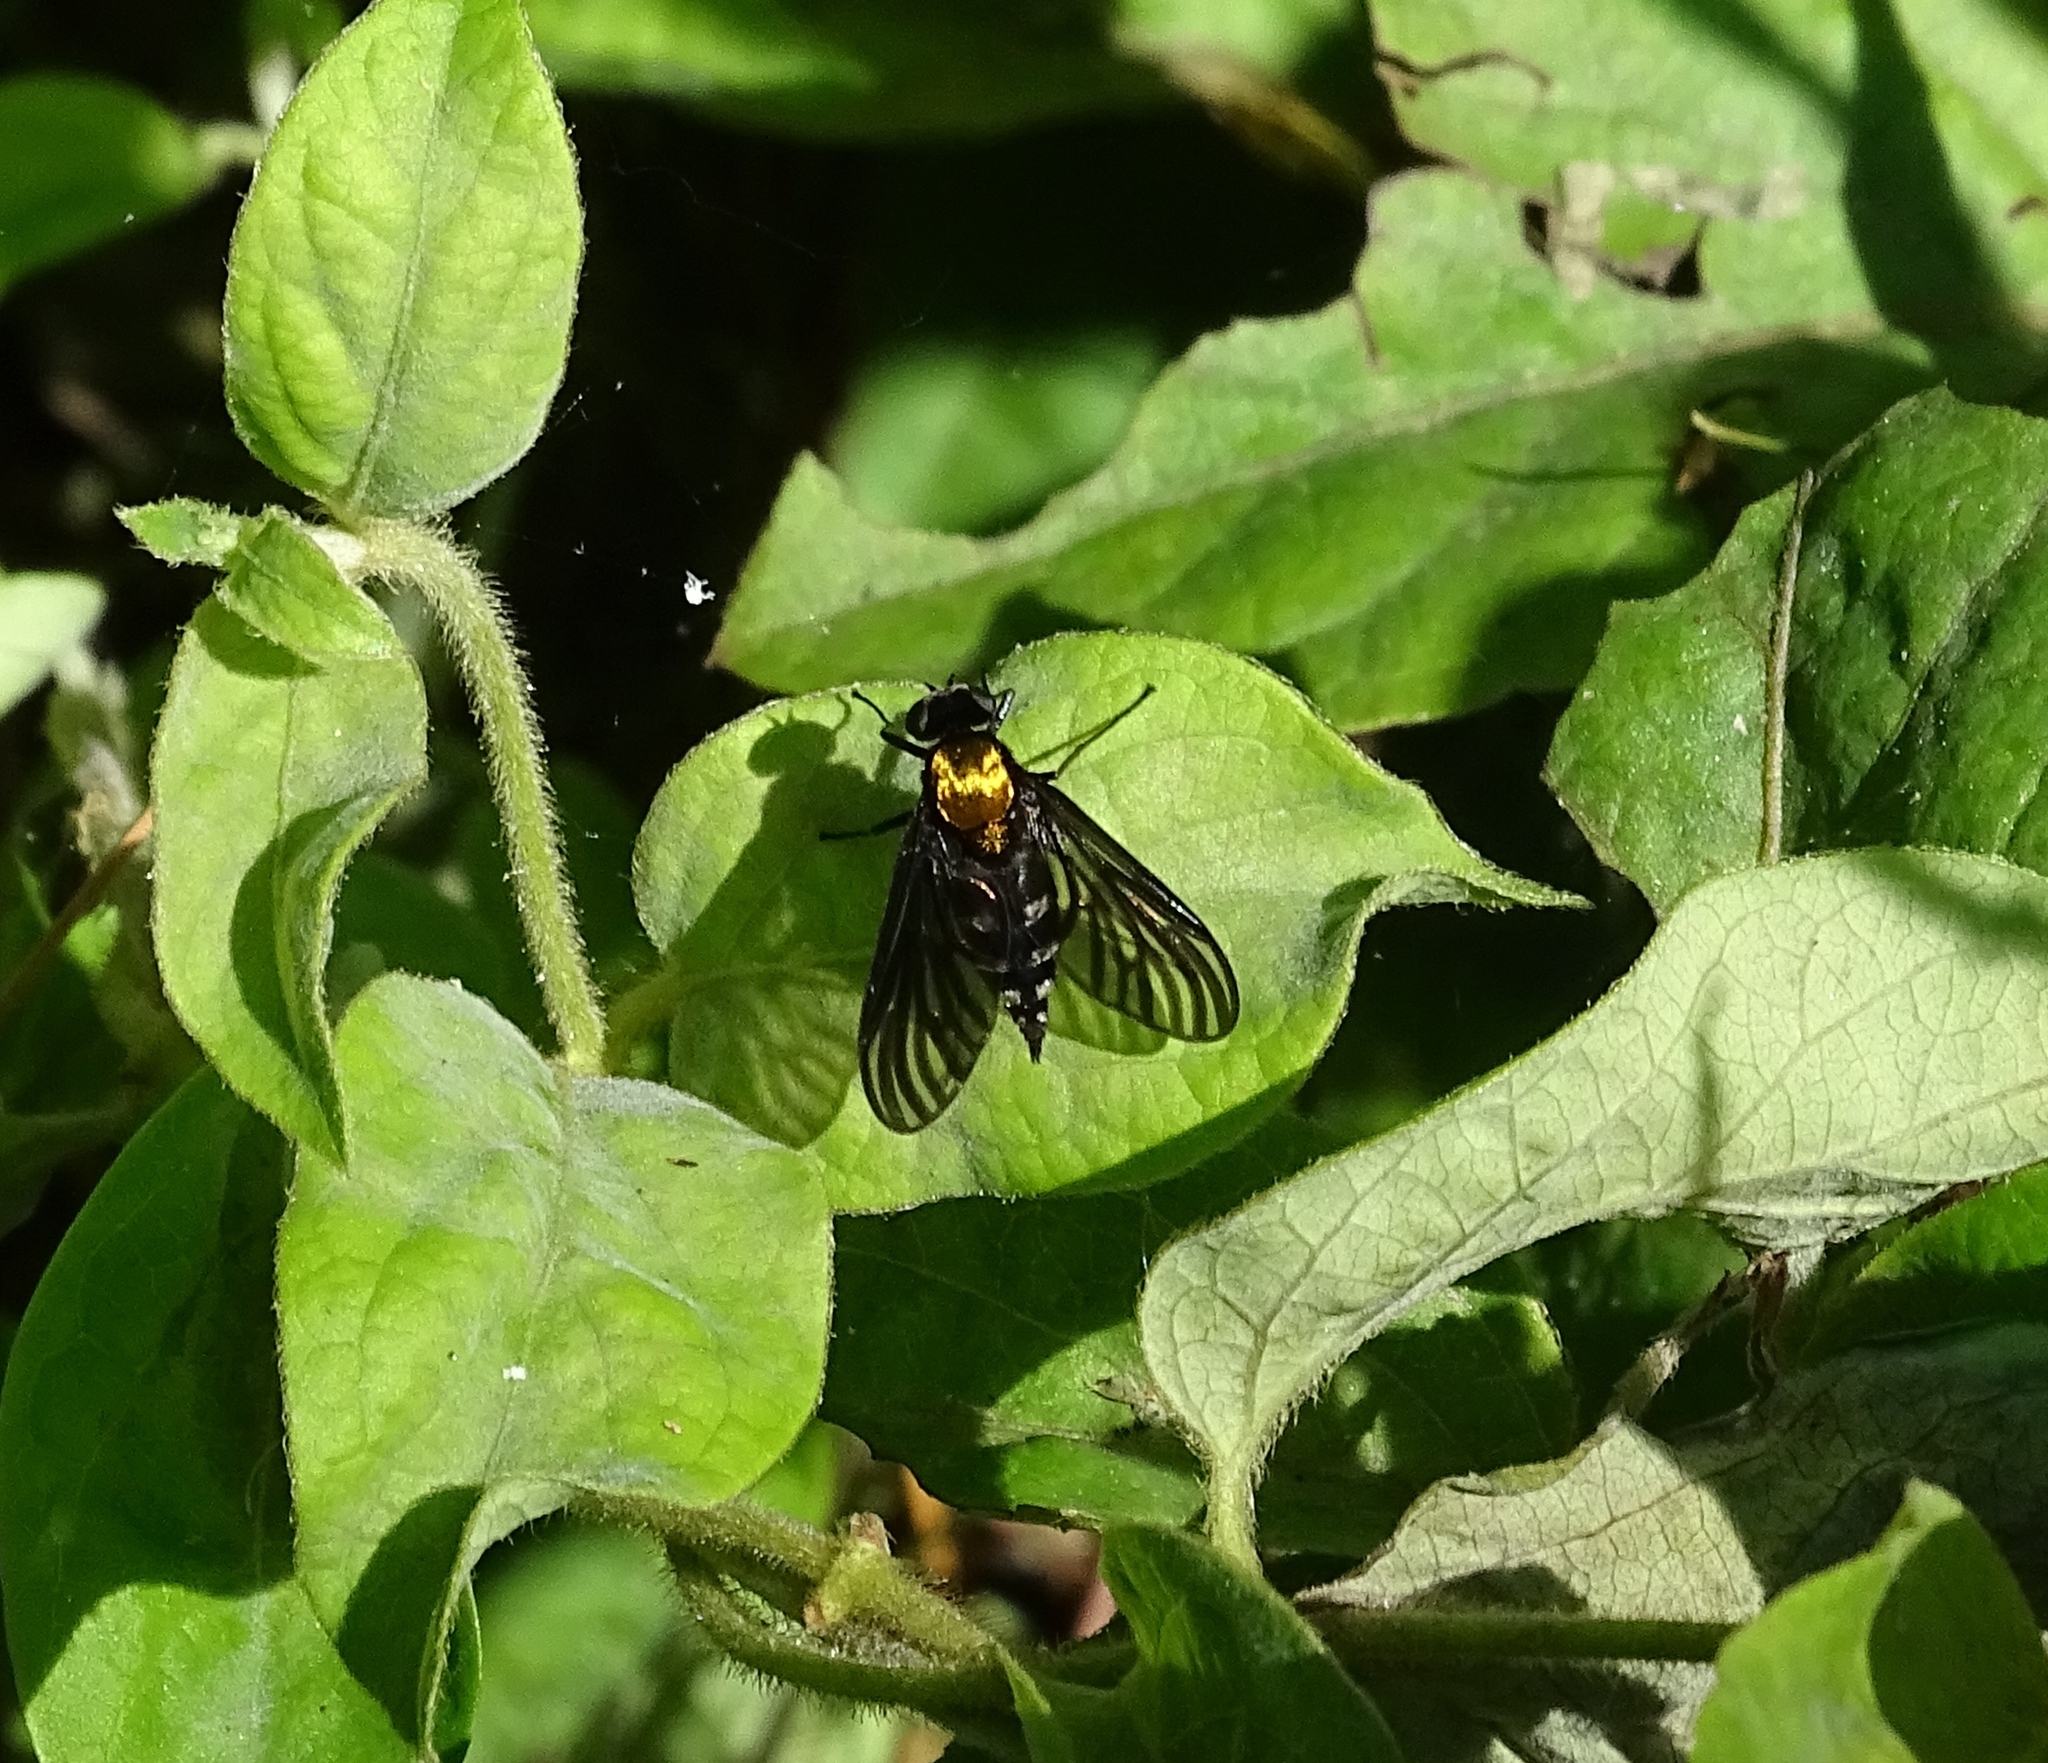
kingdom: Animalia
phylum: Arthropoda
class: Insecta
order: Diptera
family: Rhagionidae
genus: Chrysopilus
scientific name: Chrysopilus thoracicus
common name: Golden-backed snipe fly
